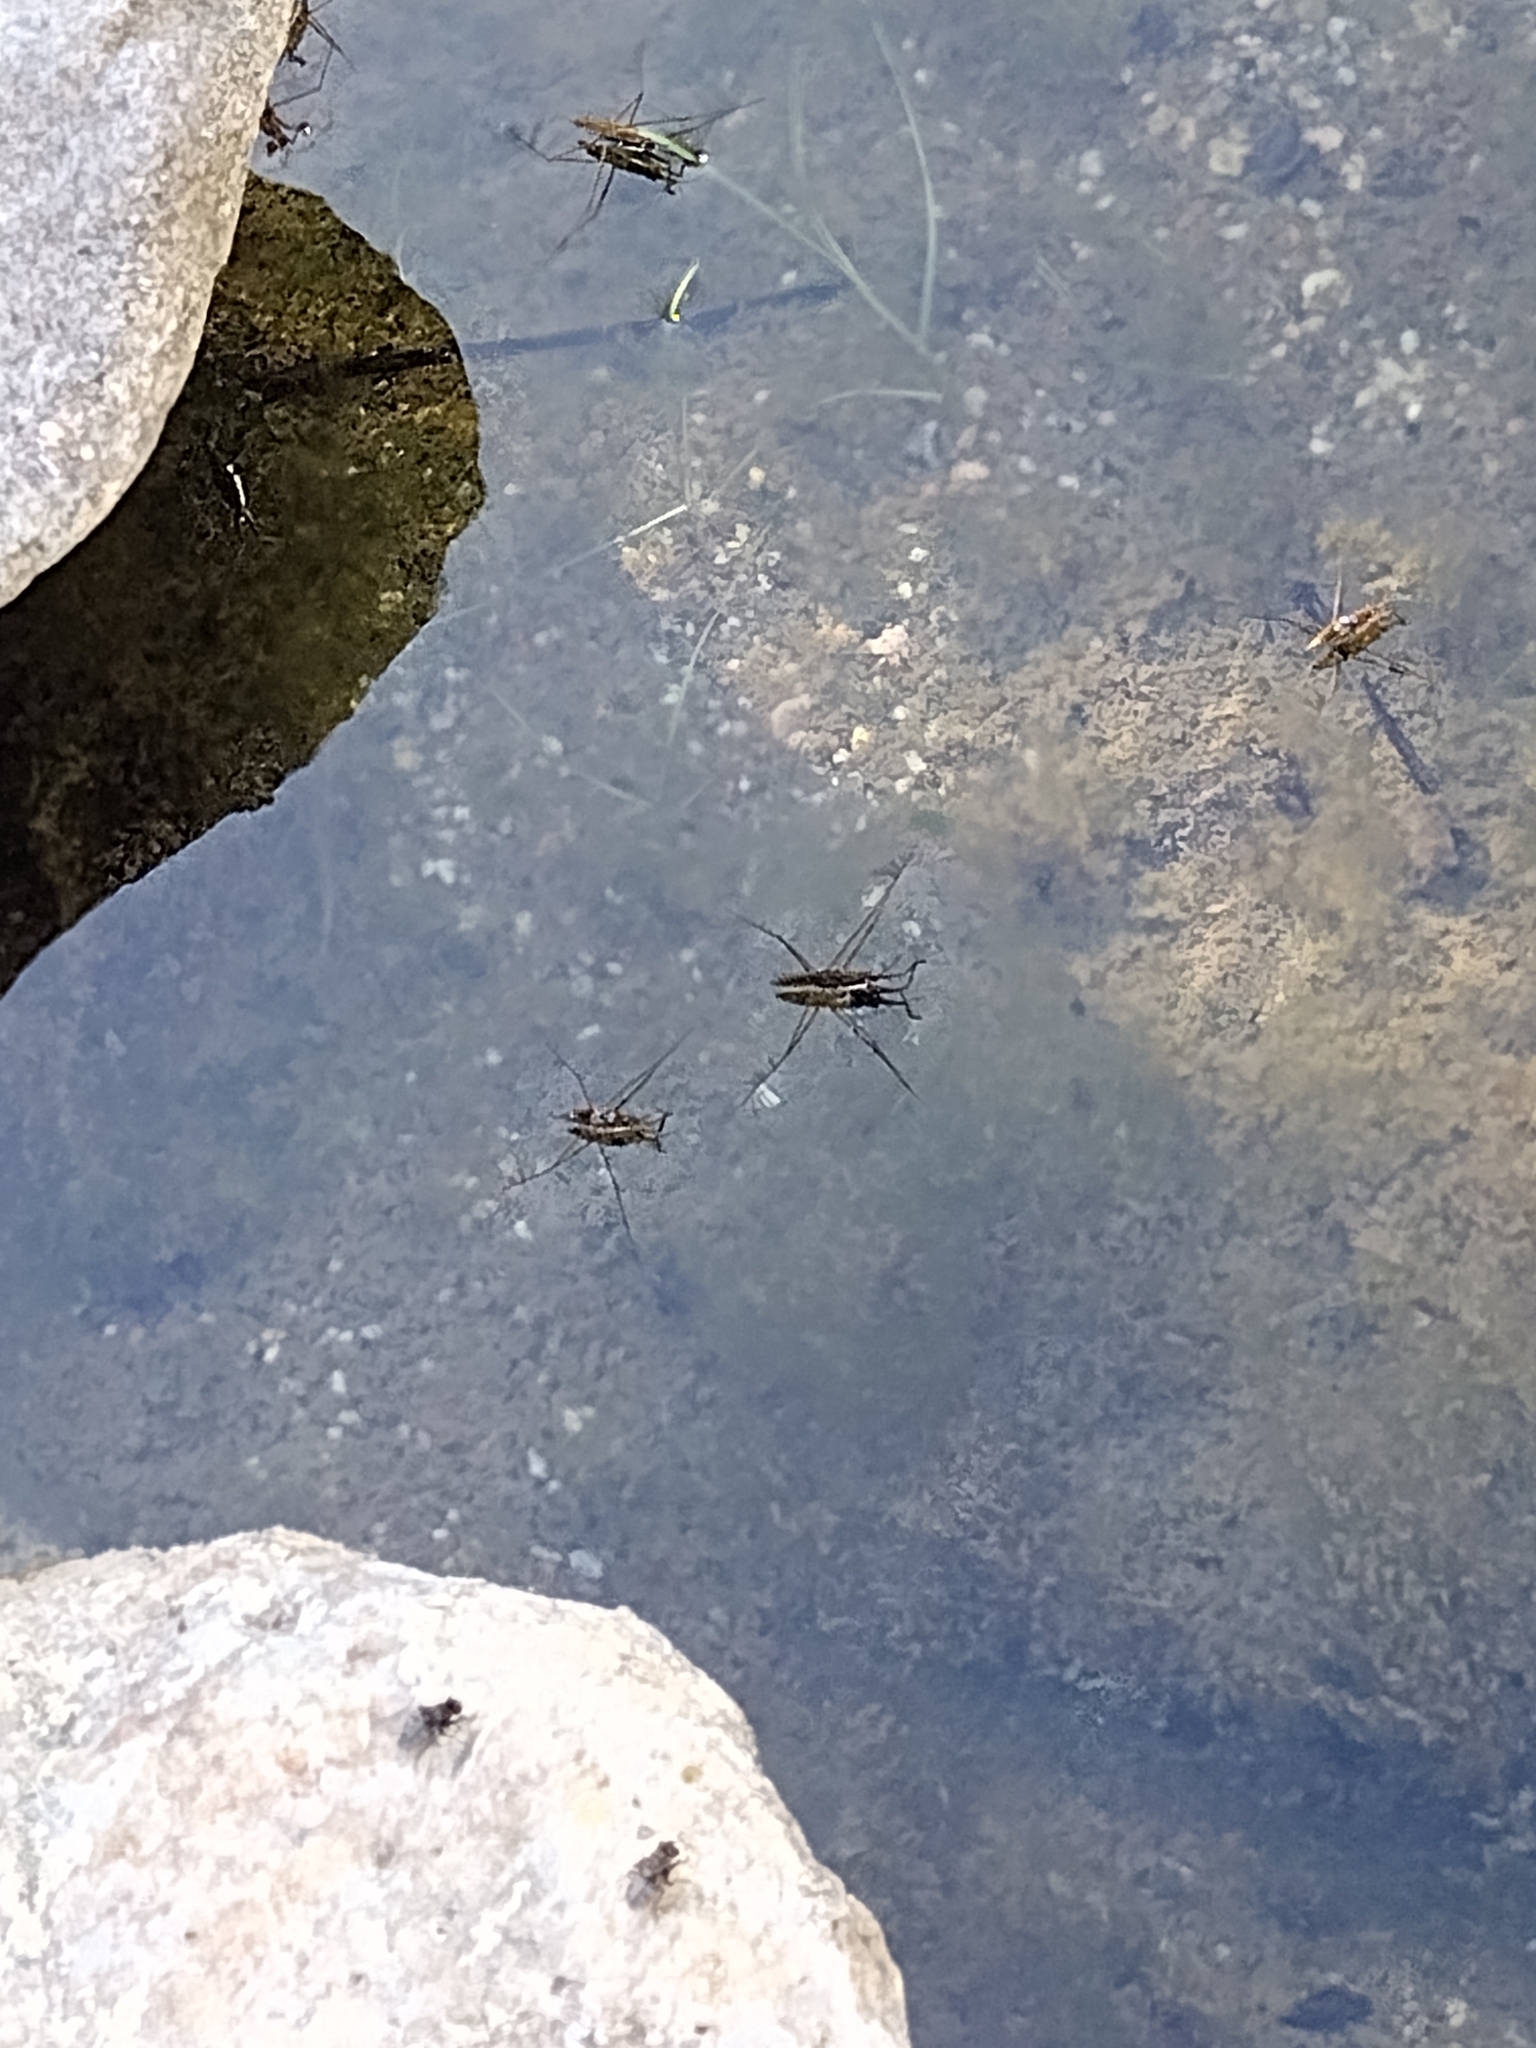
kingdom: Animalia
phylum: Arthropoda
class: Insecta
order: Hemiptera
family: Gerridae
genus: Aquarius
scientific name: Aquarius remigis
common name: Common water strider
